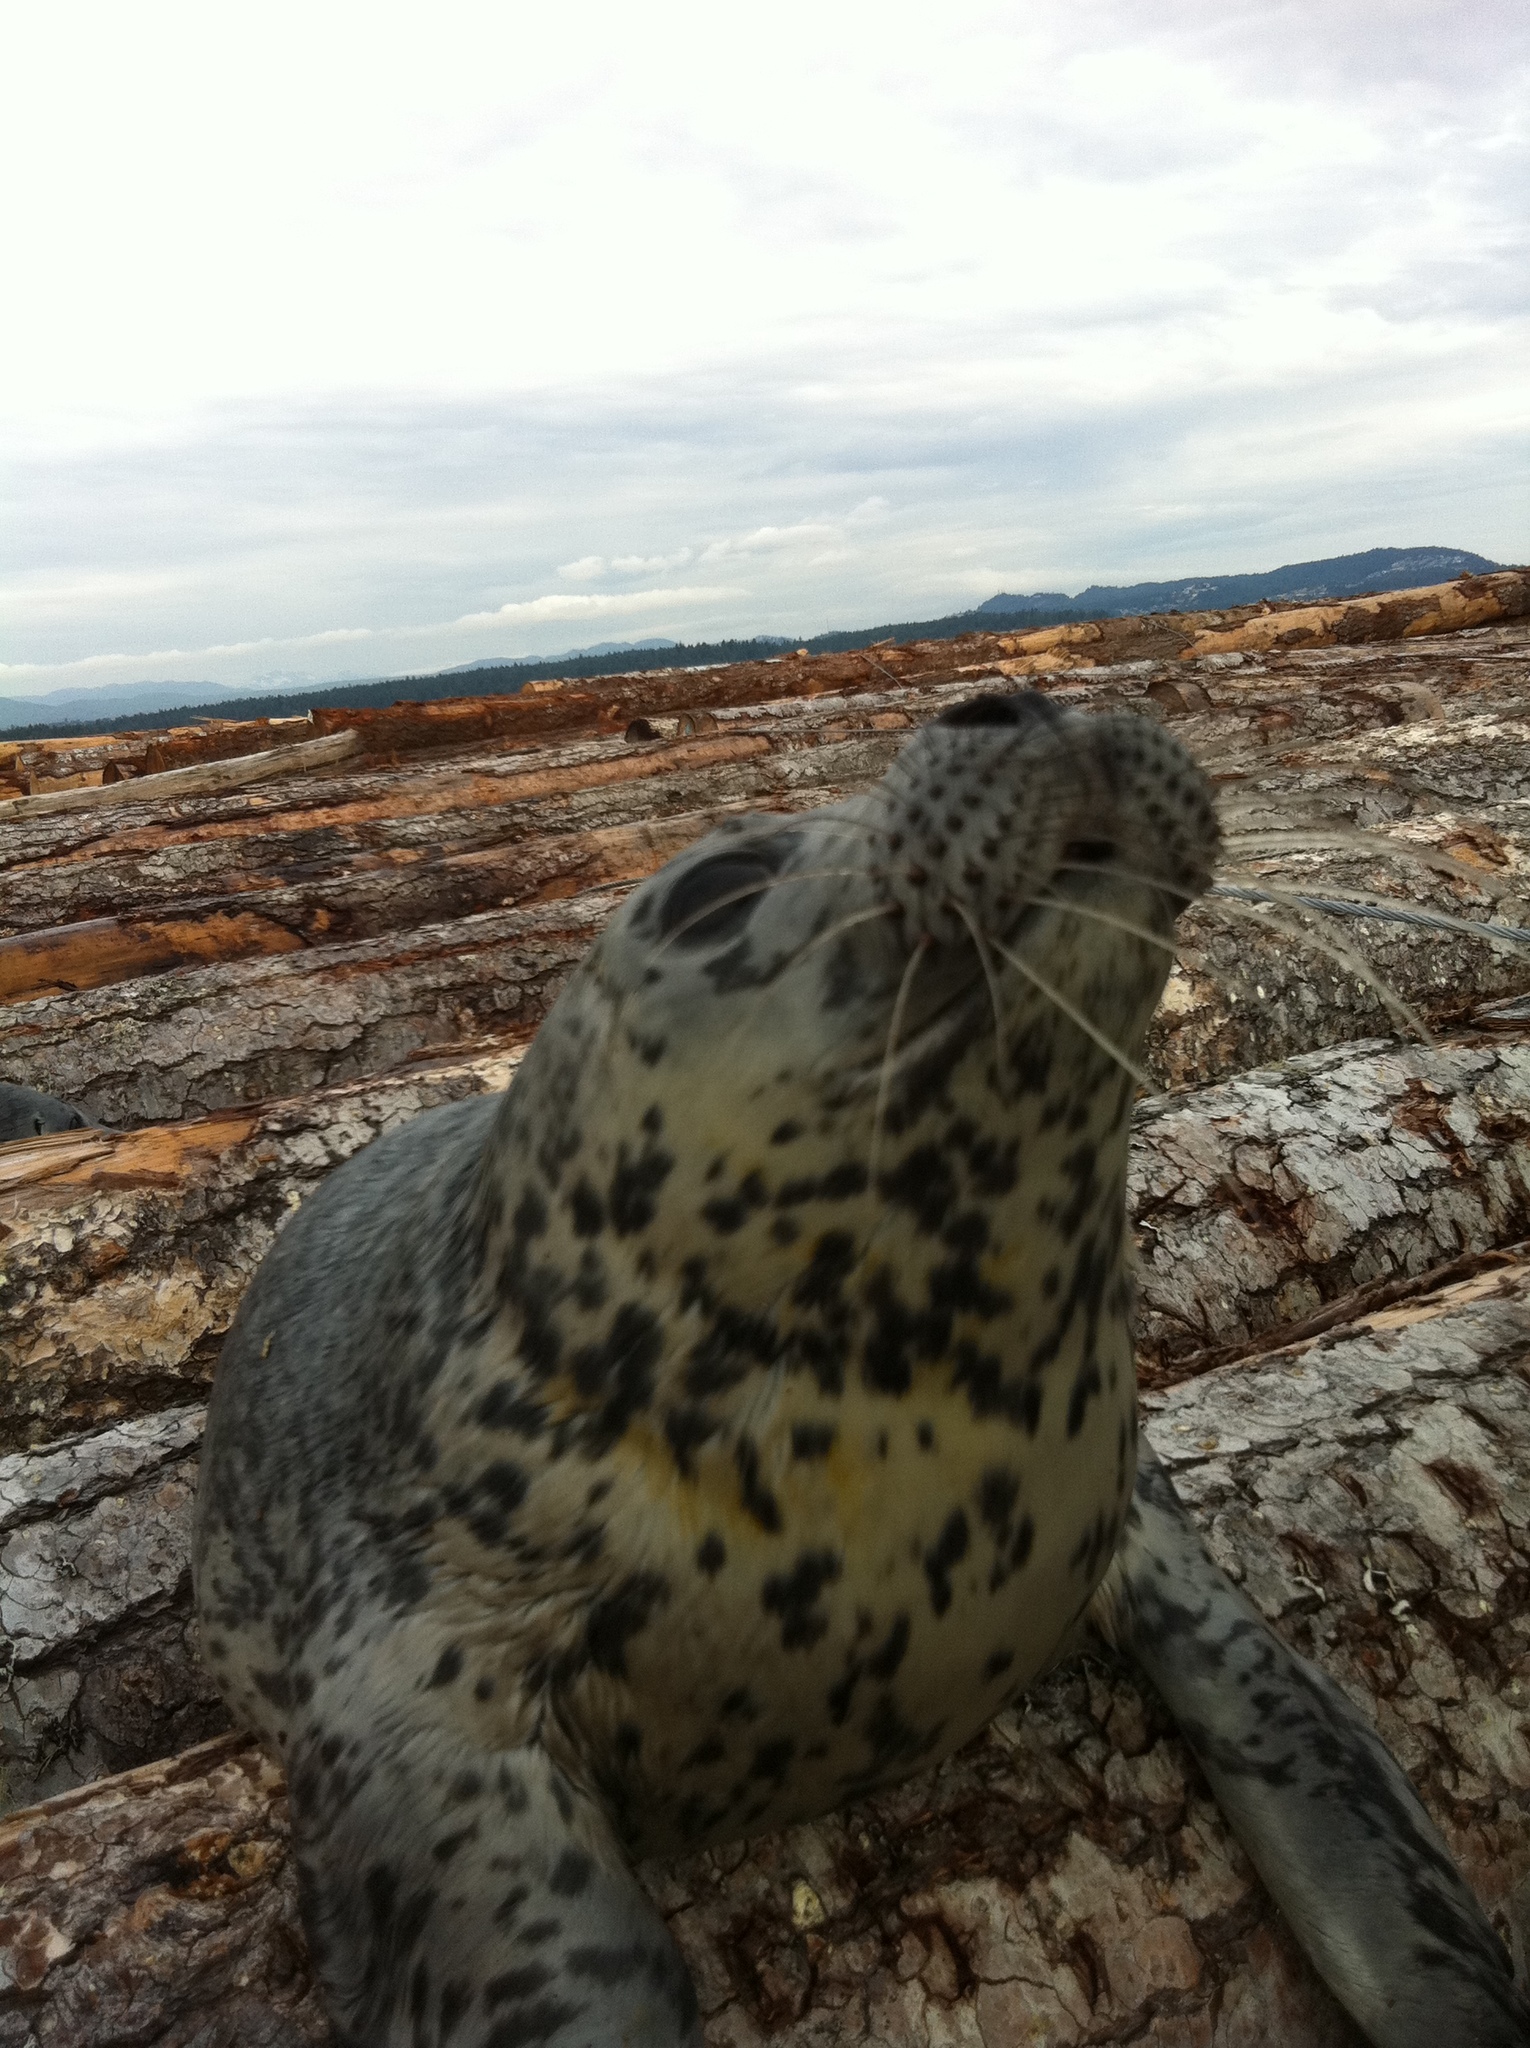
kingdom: Animalia
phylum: Chordata
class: Mammalia
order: Carnivora
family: Phocidae
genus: Phoca
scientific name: Phoca vitulina
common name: Harbor seal
